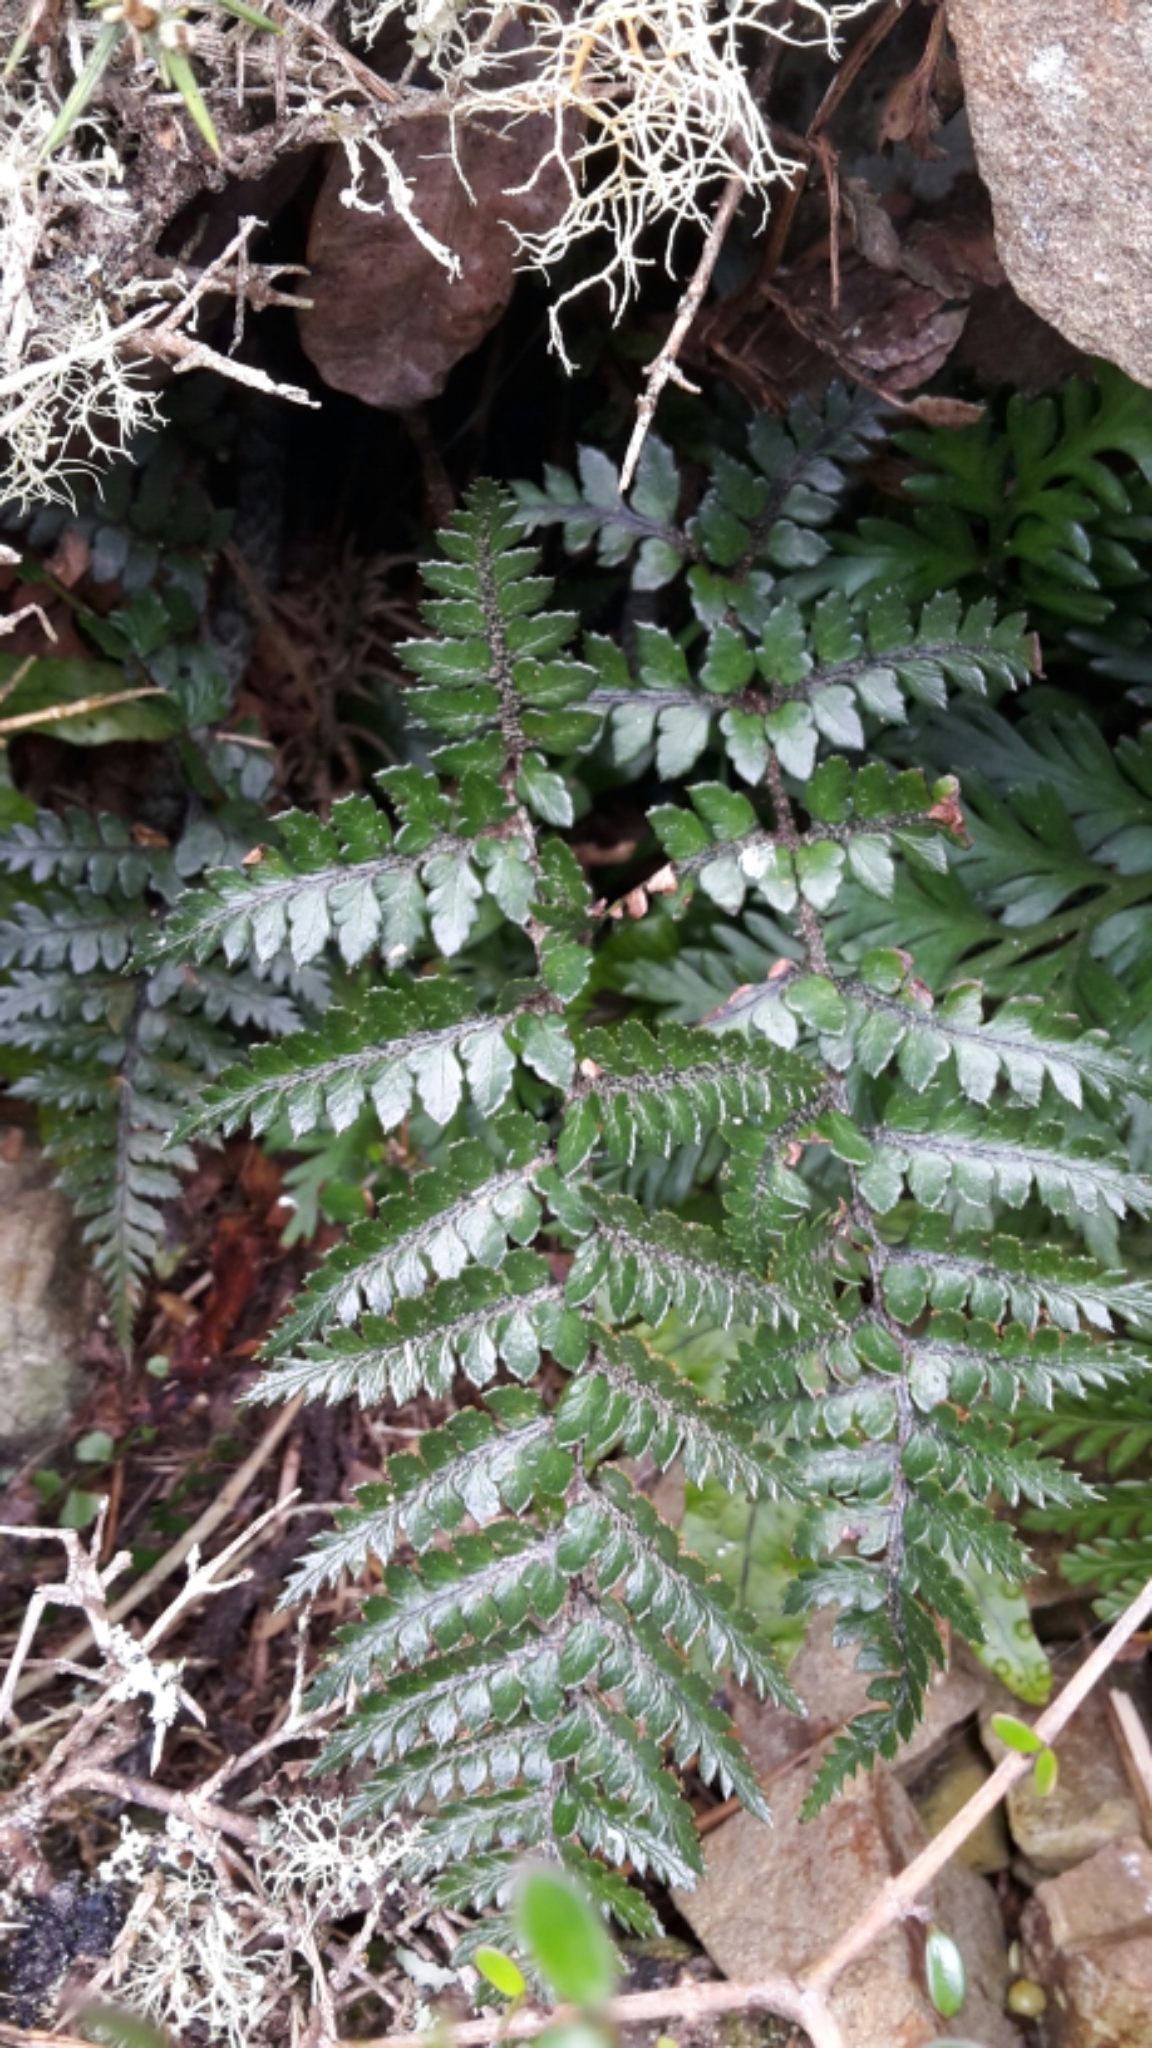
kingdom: Plantae
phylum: Tracheophyta
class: Polypodiopsida
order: Polypodiales
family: Dryopteridaceae
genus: Polystichum
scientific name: Polystichum neozelandicum
